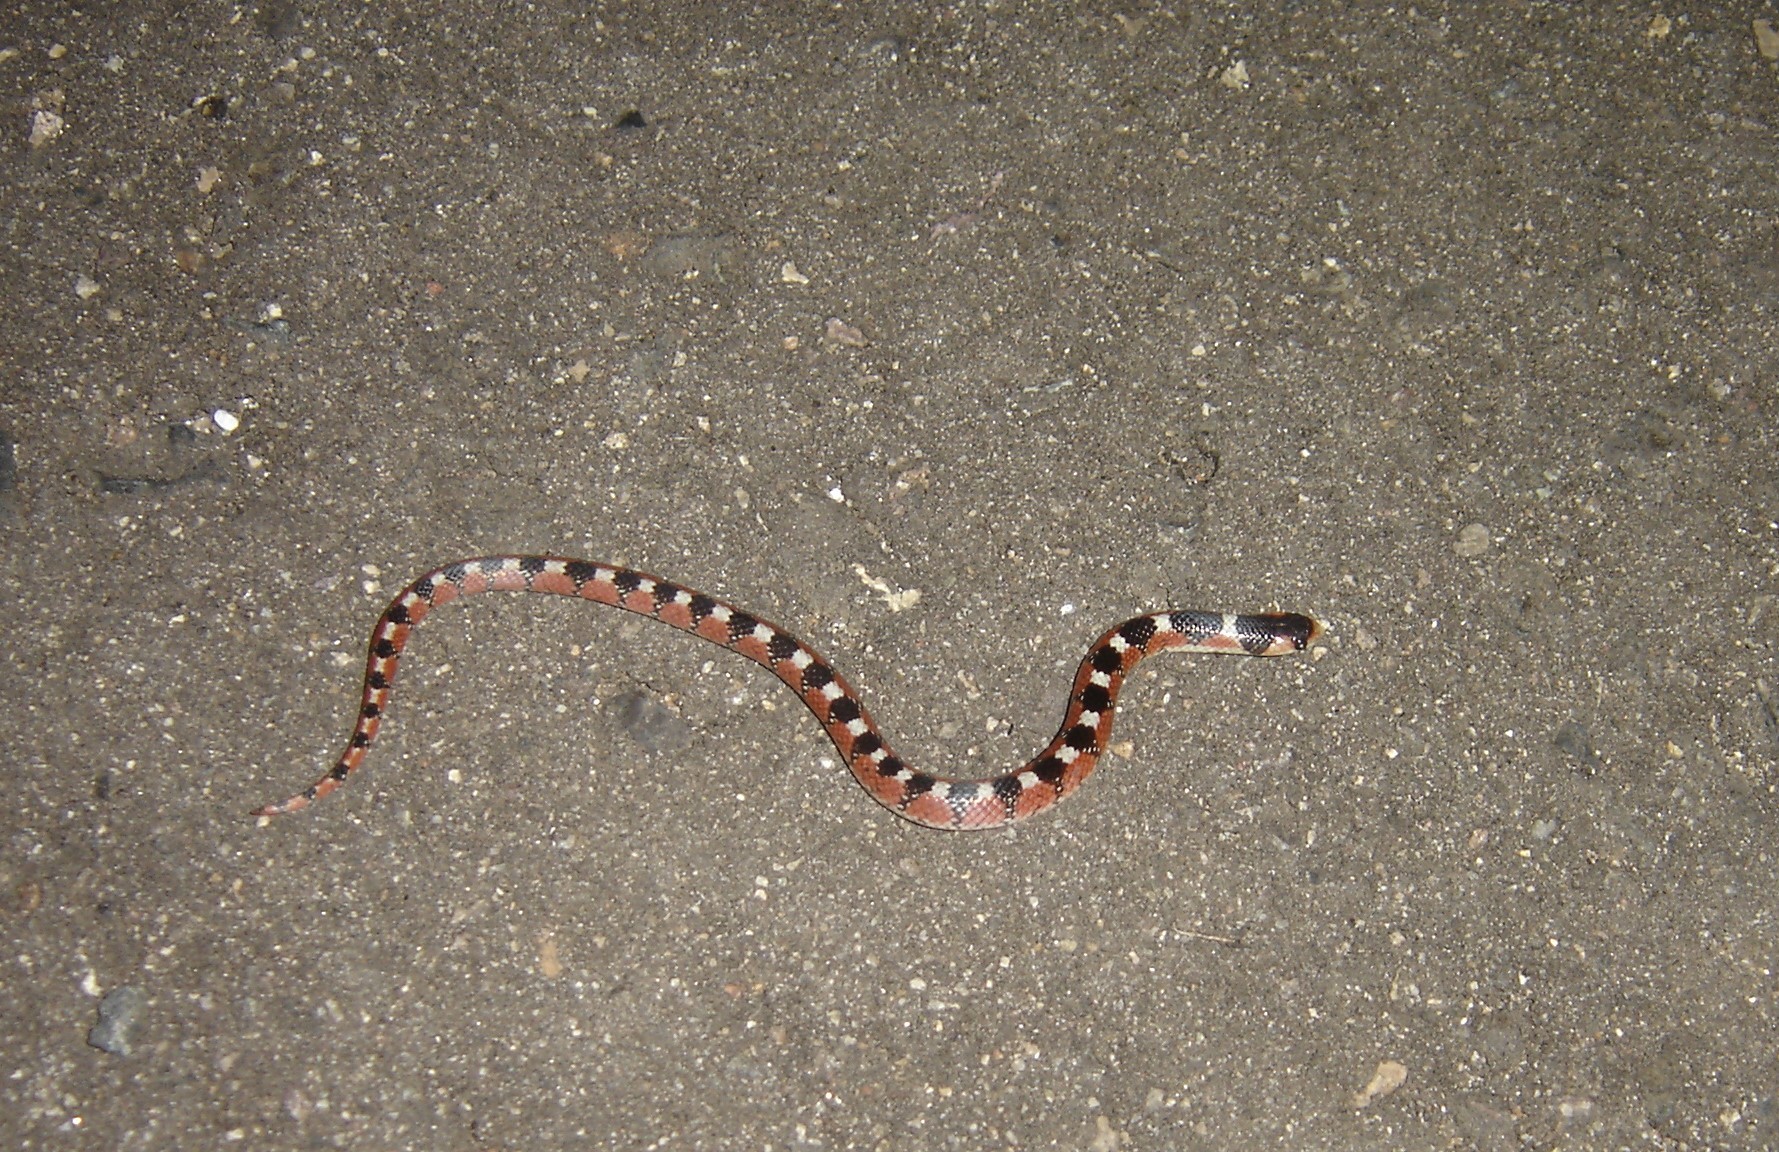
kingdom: Animalia
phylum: Chordata
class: Squamata
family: Colubridae
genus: Gyalopion
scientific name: Gyalopion quadrangulare
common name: Thornscrub or desert hooknose snake
